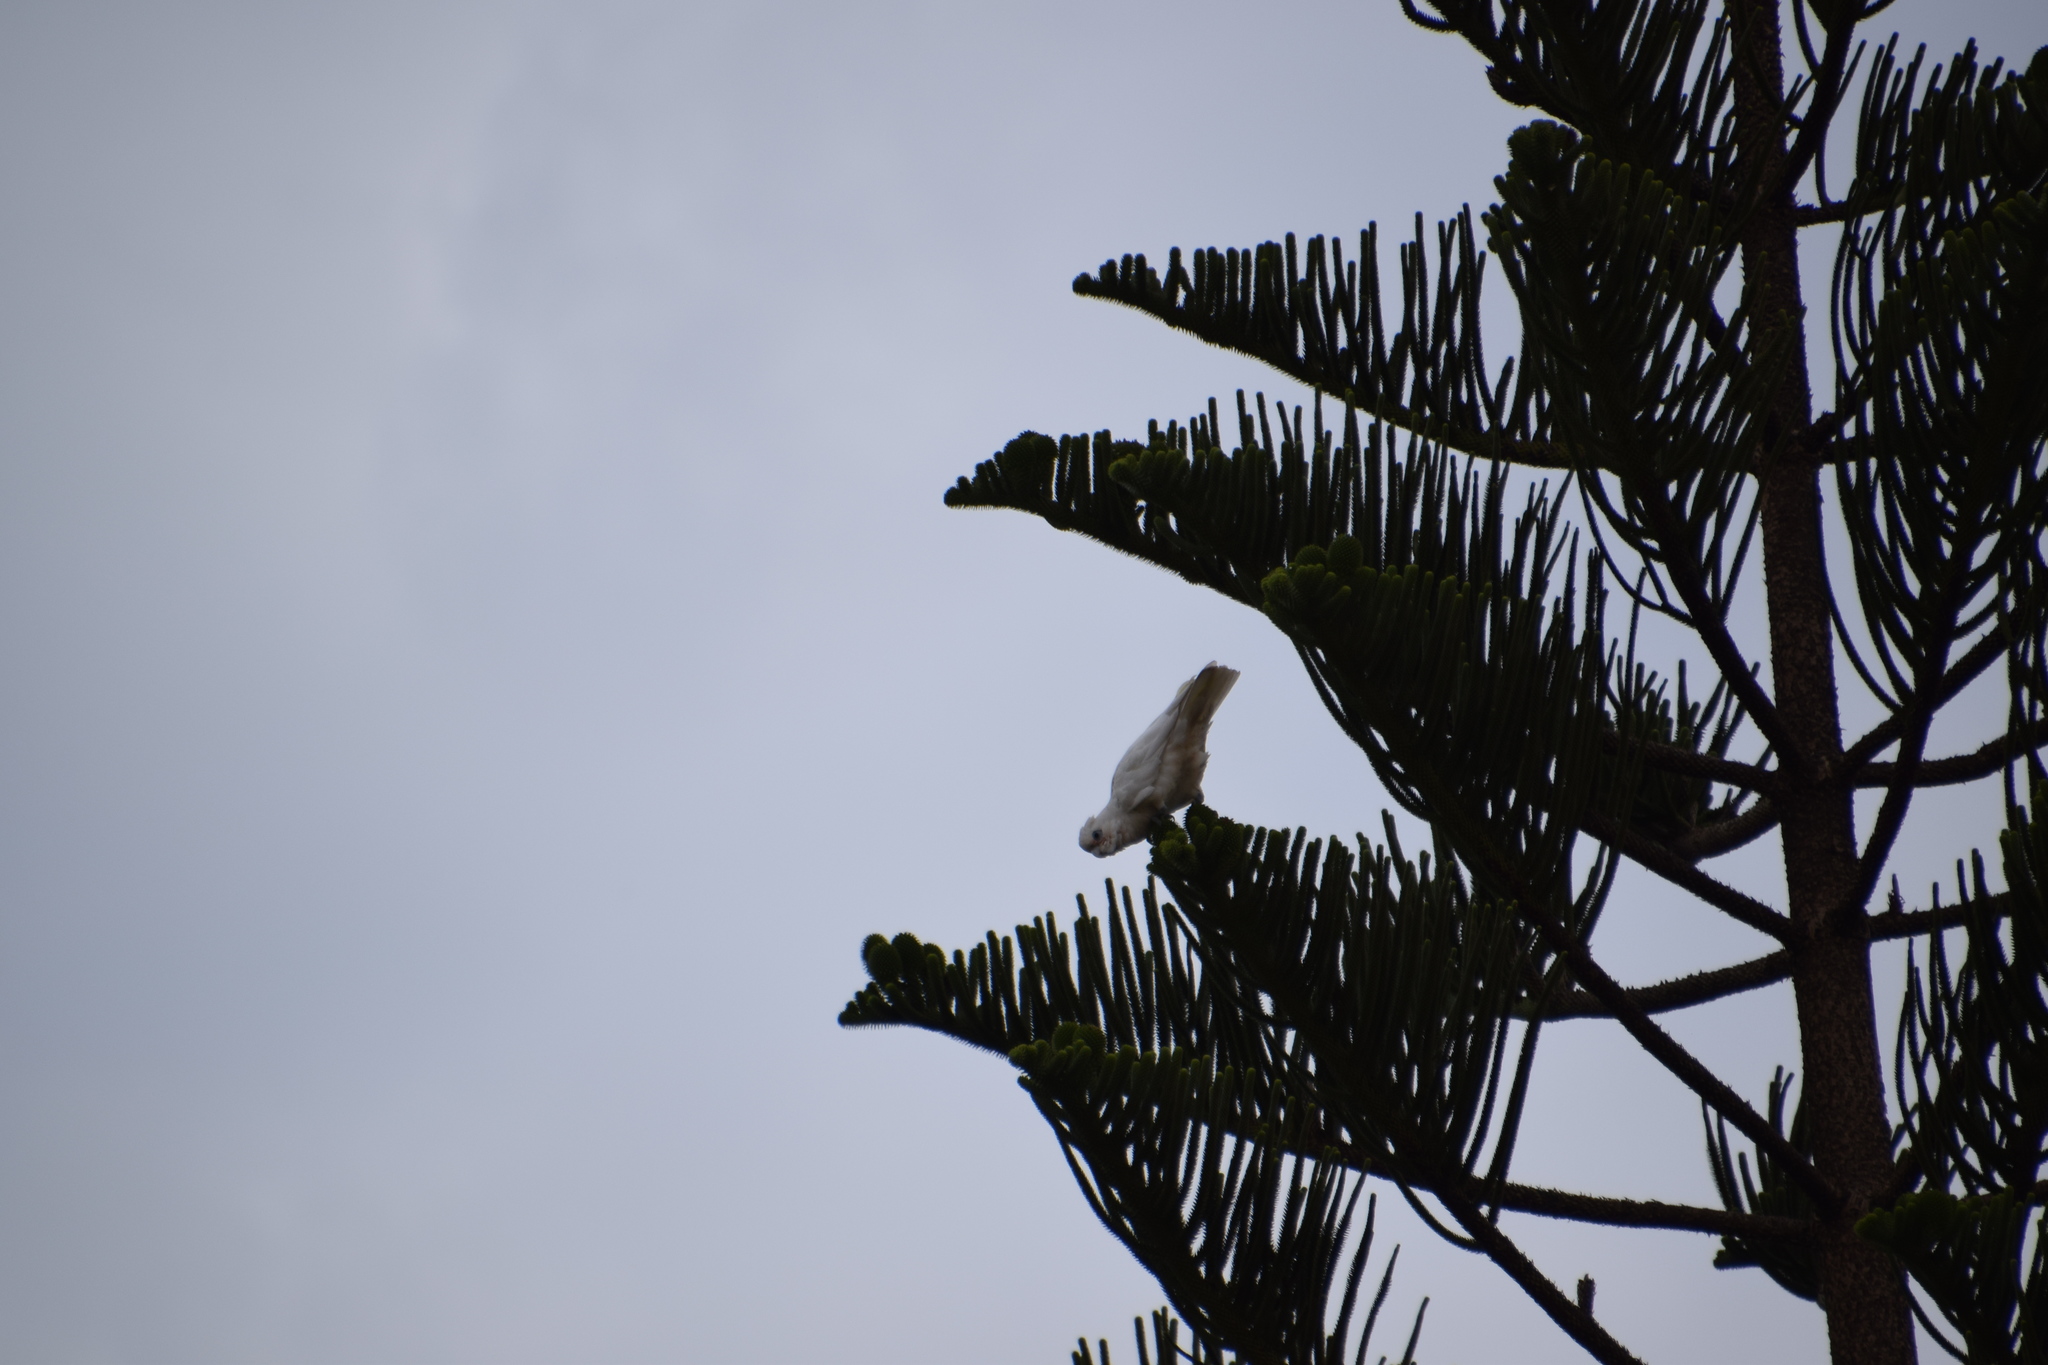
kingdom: Animalia
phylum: Chordata
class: Aves
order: Psittaciformes
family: Psittacidae
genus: Cacatua
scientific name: Cacatua sanguinea
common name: Little corella
